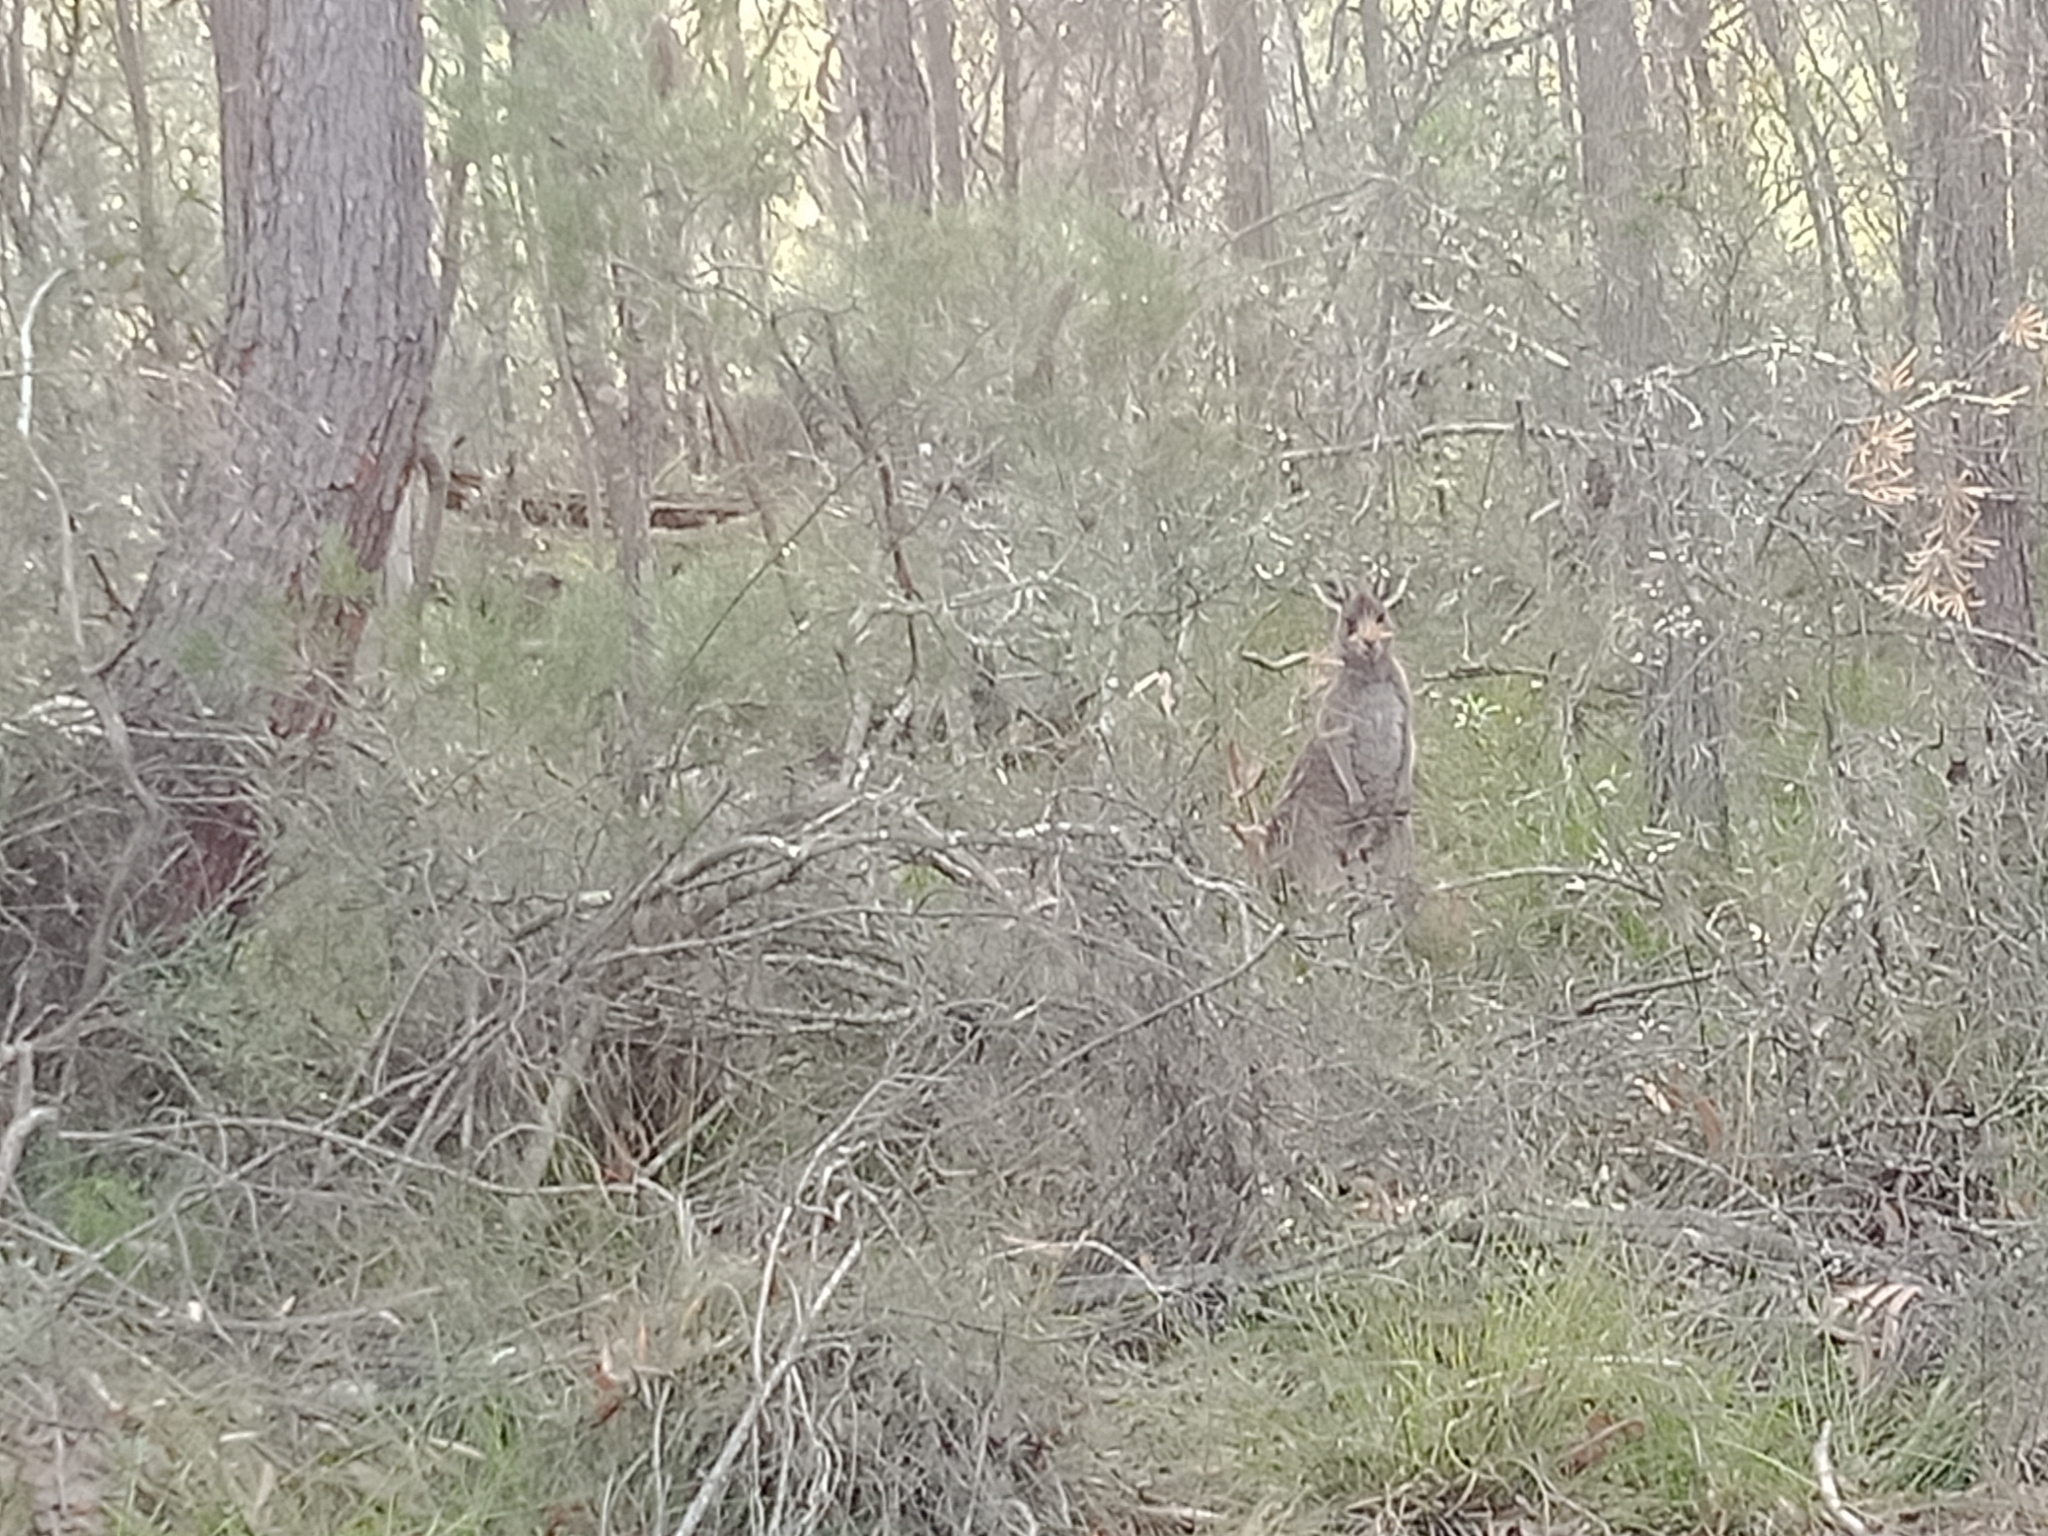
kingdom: Animalia
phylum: Chordata
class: Mammalia
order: Diprotodontia
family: Macropodidae
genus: Macropus
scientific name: Macropus giganteus
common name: Eastern grey kangaroo
